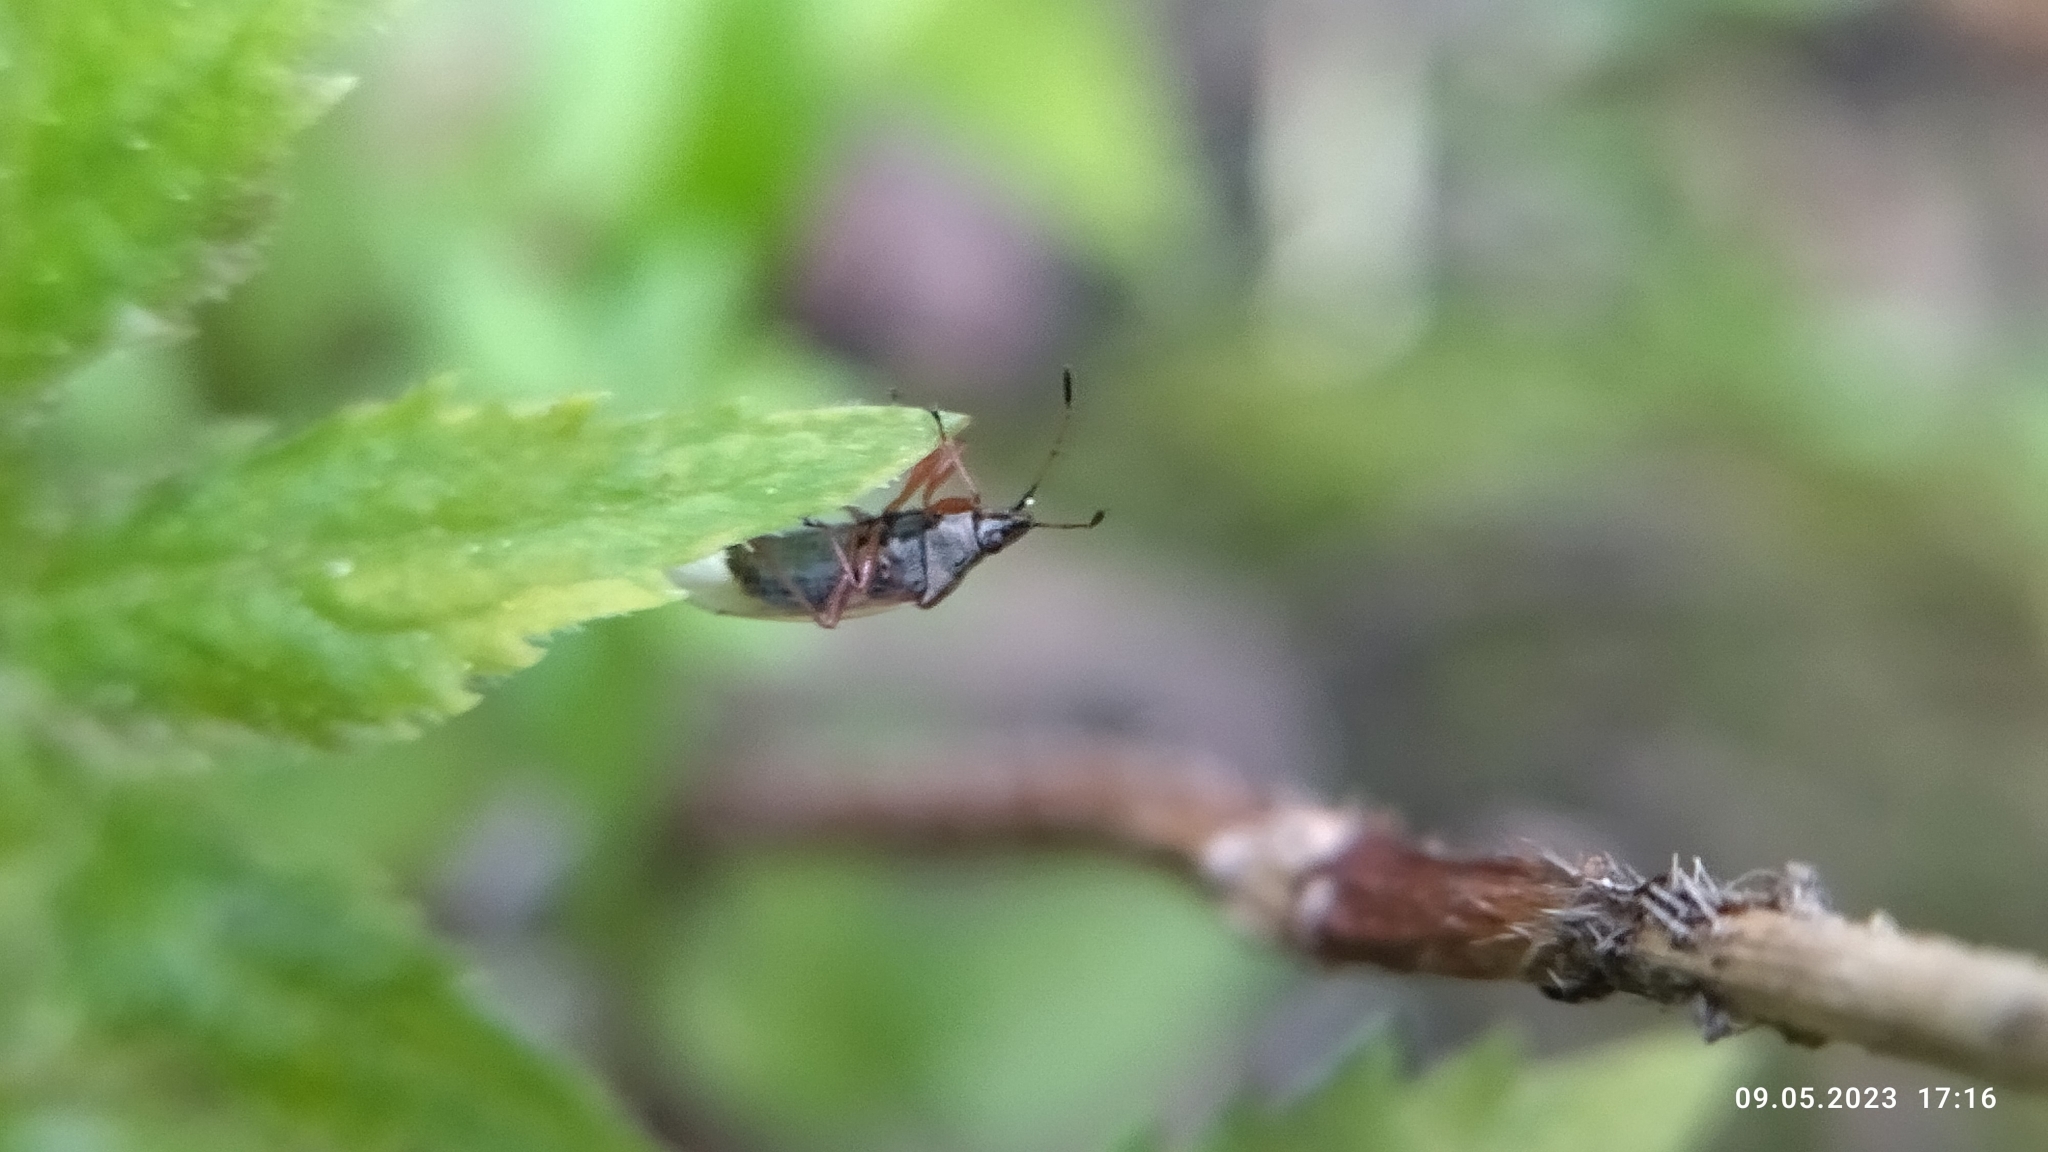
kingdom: Animalia
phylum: Arthropoda
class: Insecta
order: Hemiptera
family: Lygaeidae
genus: Kleidocerys
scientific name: Kleidocerys resedae
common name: Birch catkin bug
